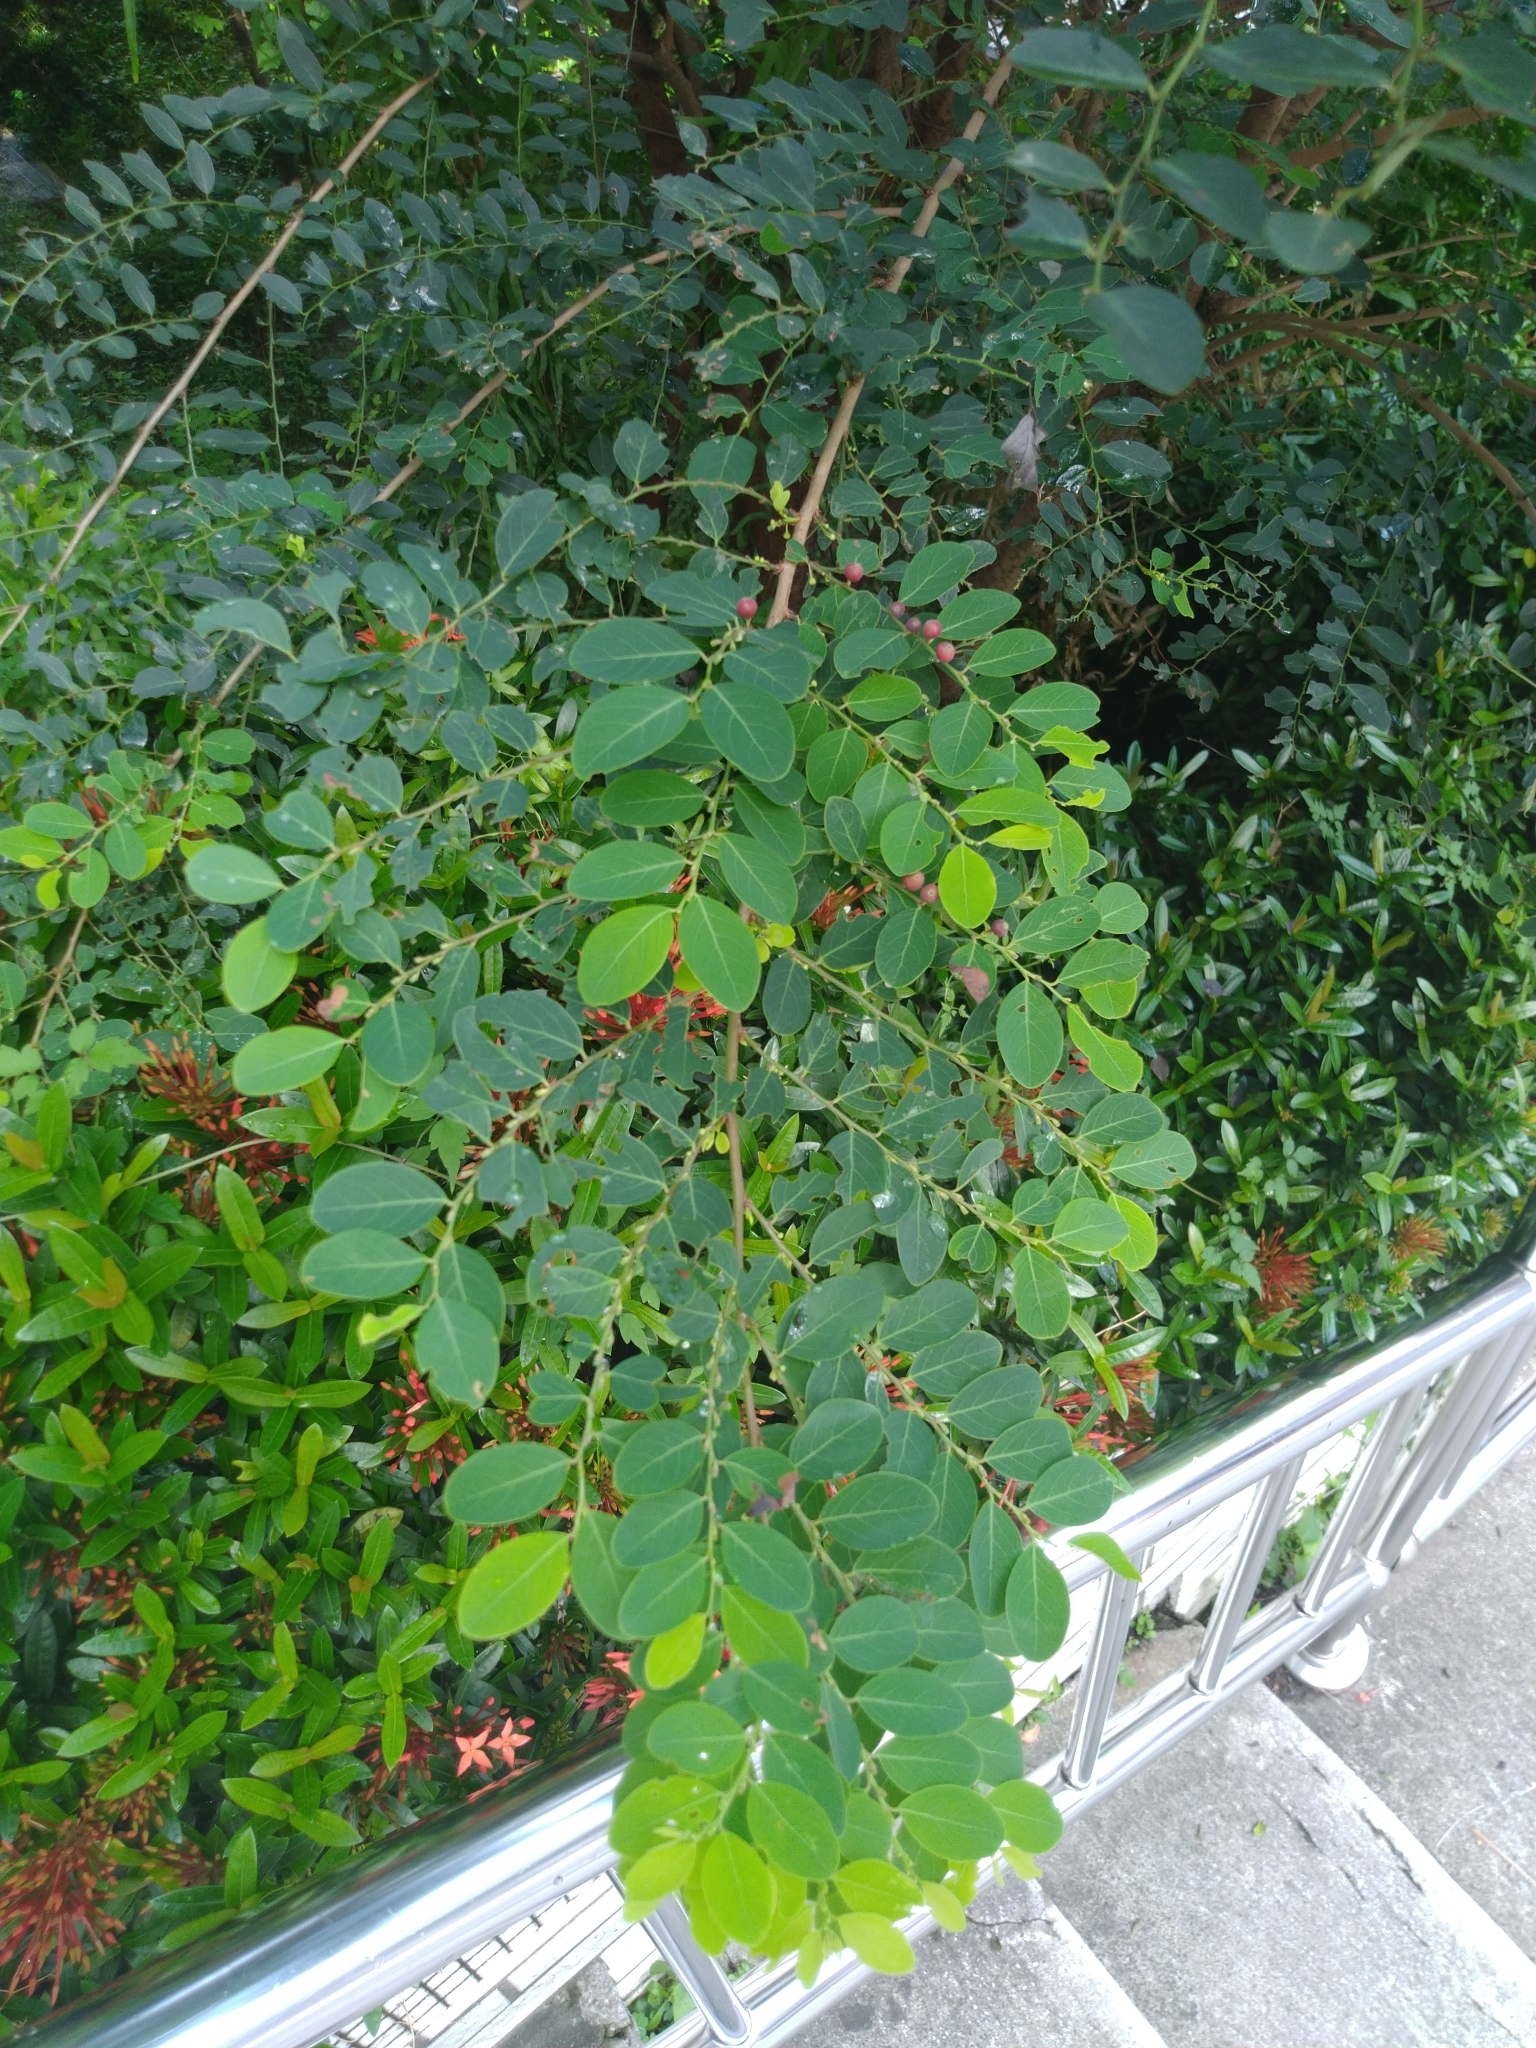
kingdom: Plantae
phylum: Tracheophyta
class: Magnoliopsida
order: Malpighiales
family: Phyllanthaceae
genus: Breynia
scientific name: Breynia vitis-idaea
